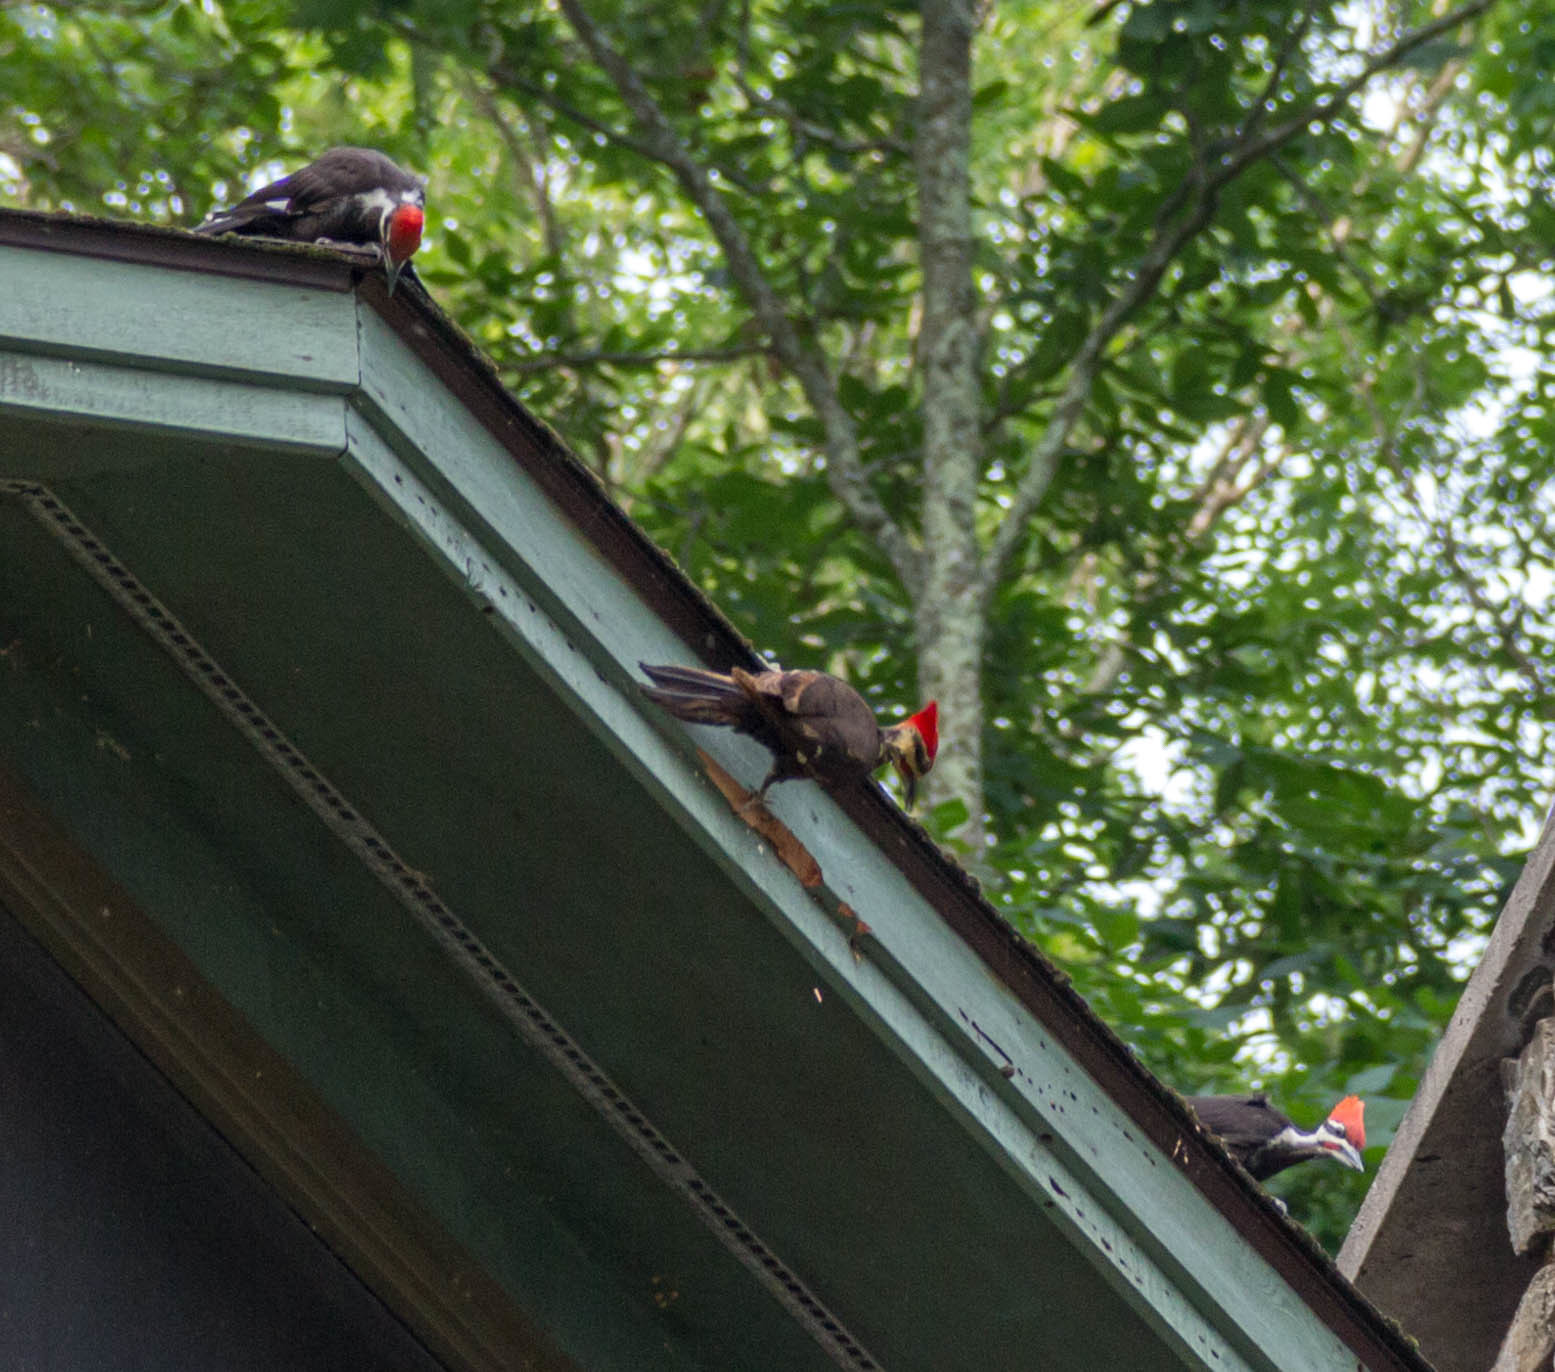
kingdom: Animalia
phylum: Chordata
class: Aves
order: Piciformes
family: Picidae
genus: Dryocopus
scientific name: Dryocopus pileatus
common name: Pileated woodpecker
